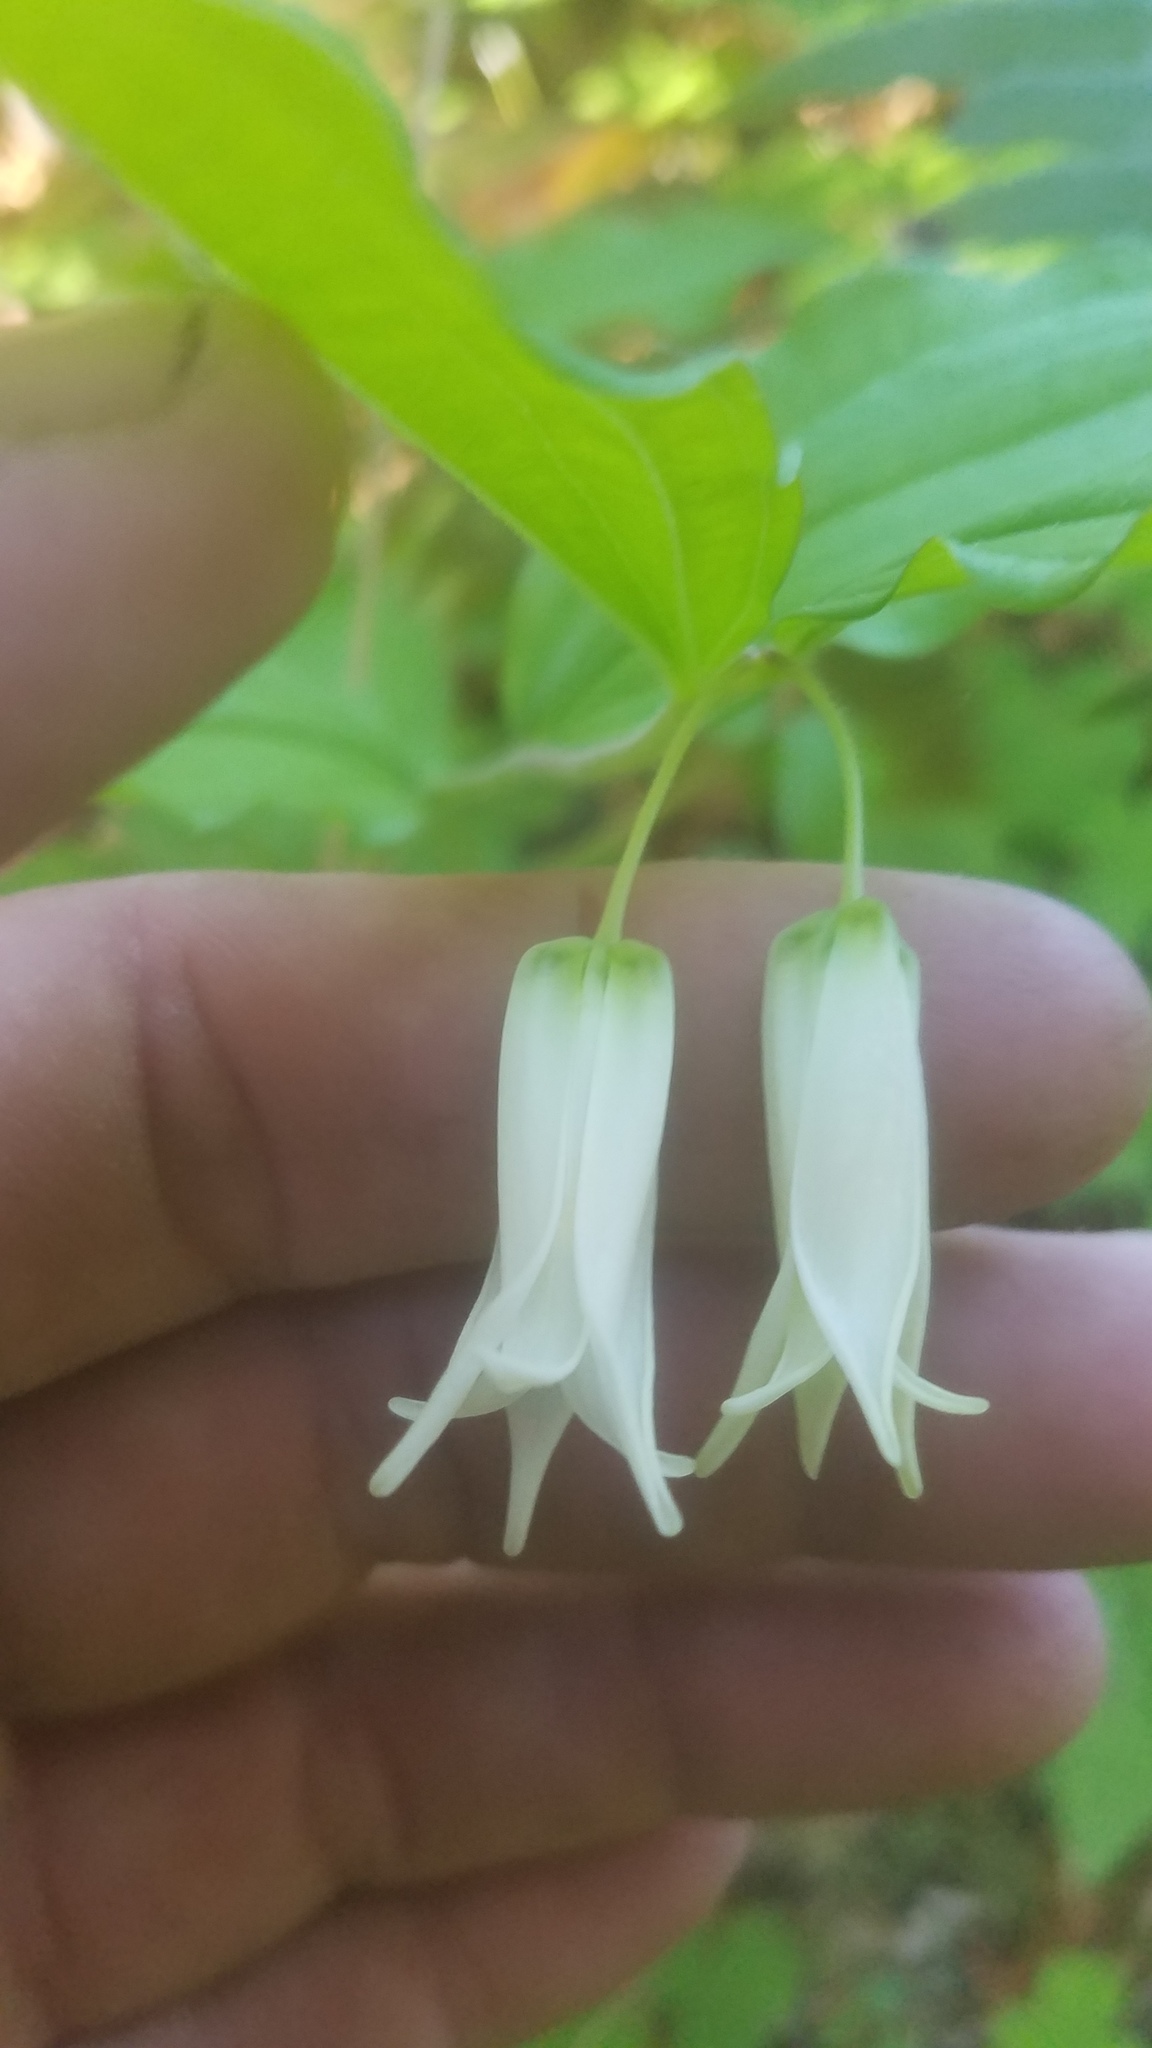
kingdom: Plantae
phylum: Tracheophyta
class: Liliopsida
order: Liliales
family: Liliaceae
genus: Prosartes
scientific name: Prosartes smithii
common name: Fairy-lantern
